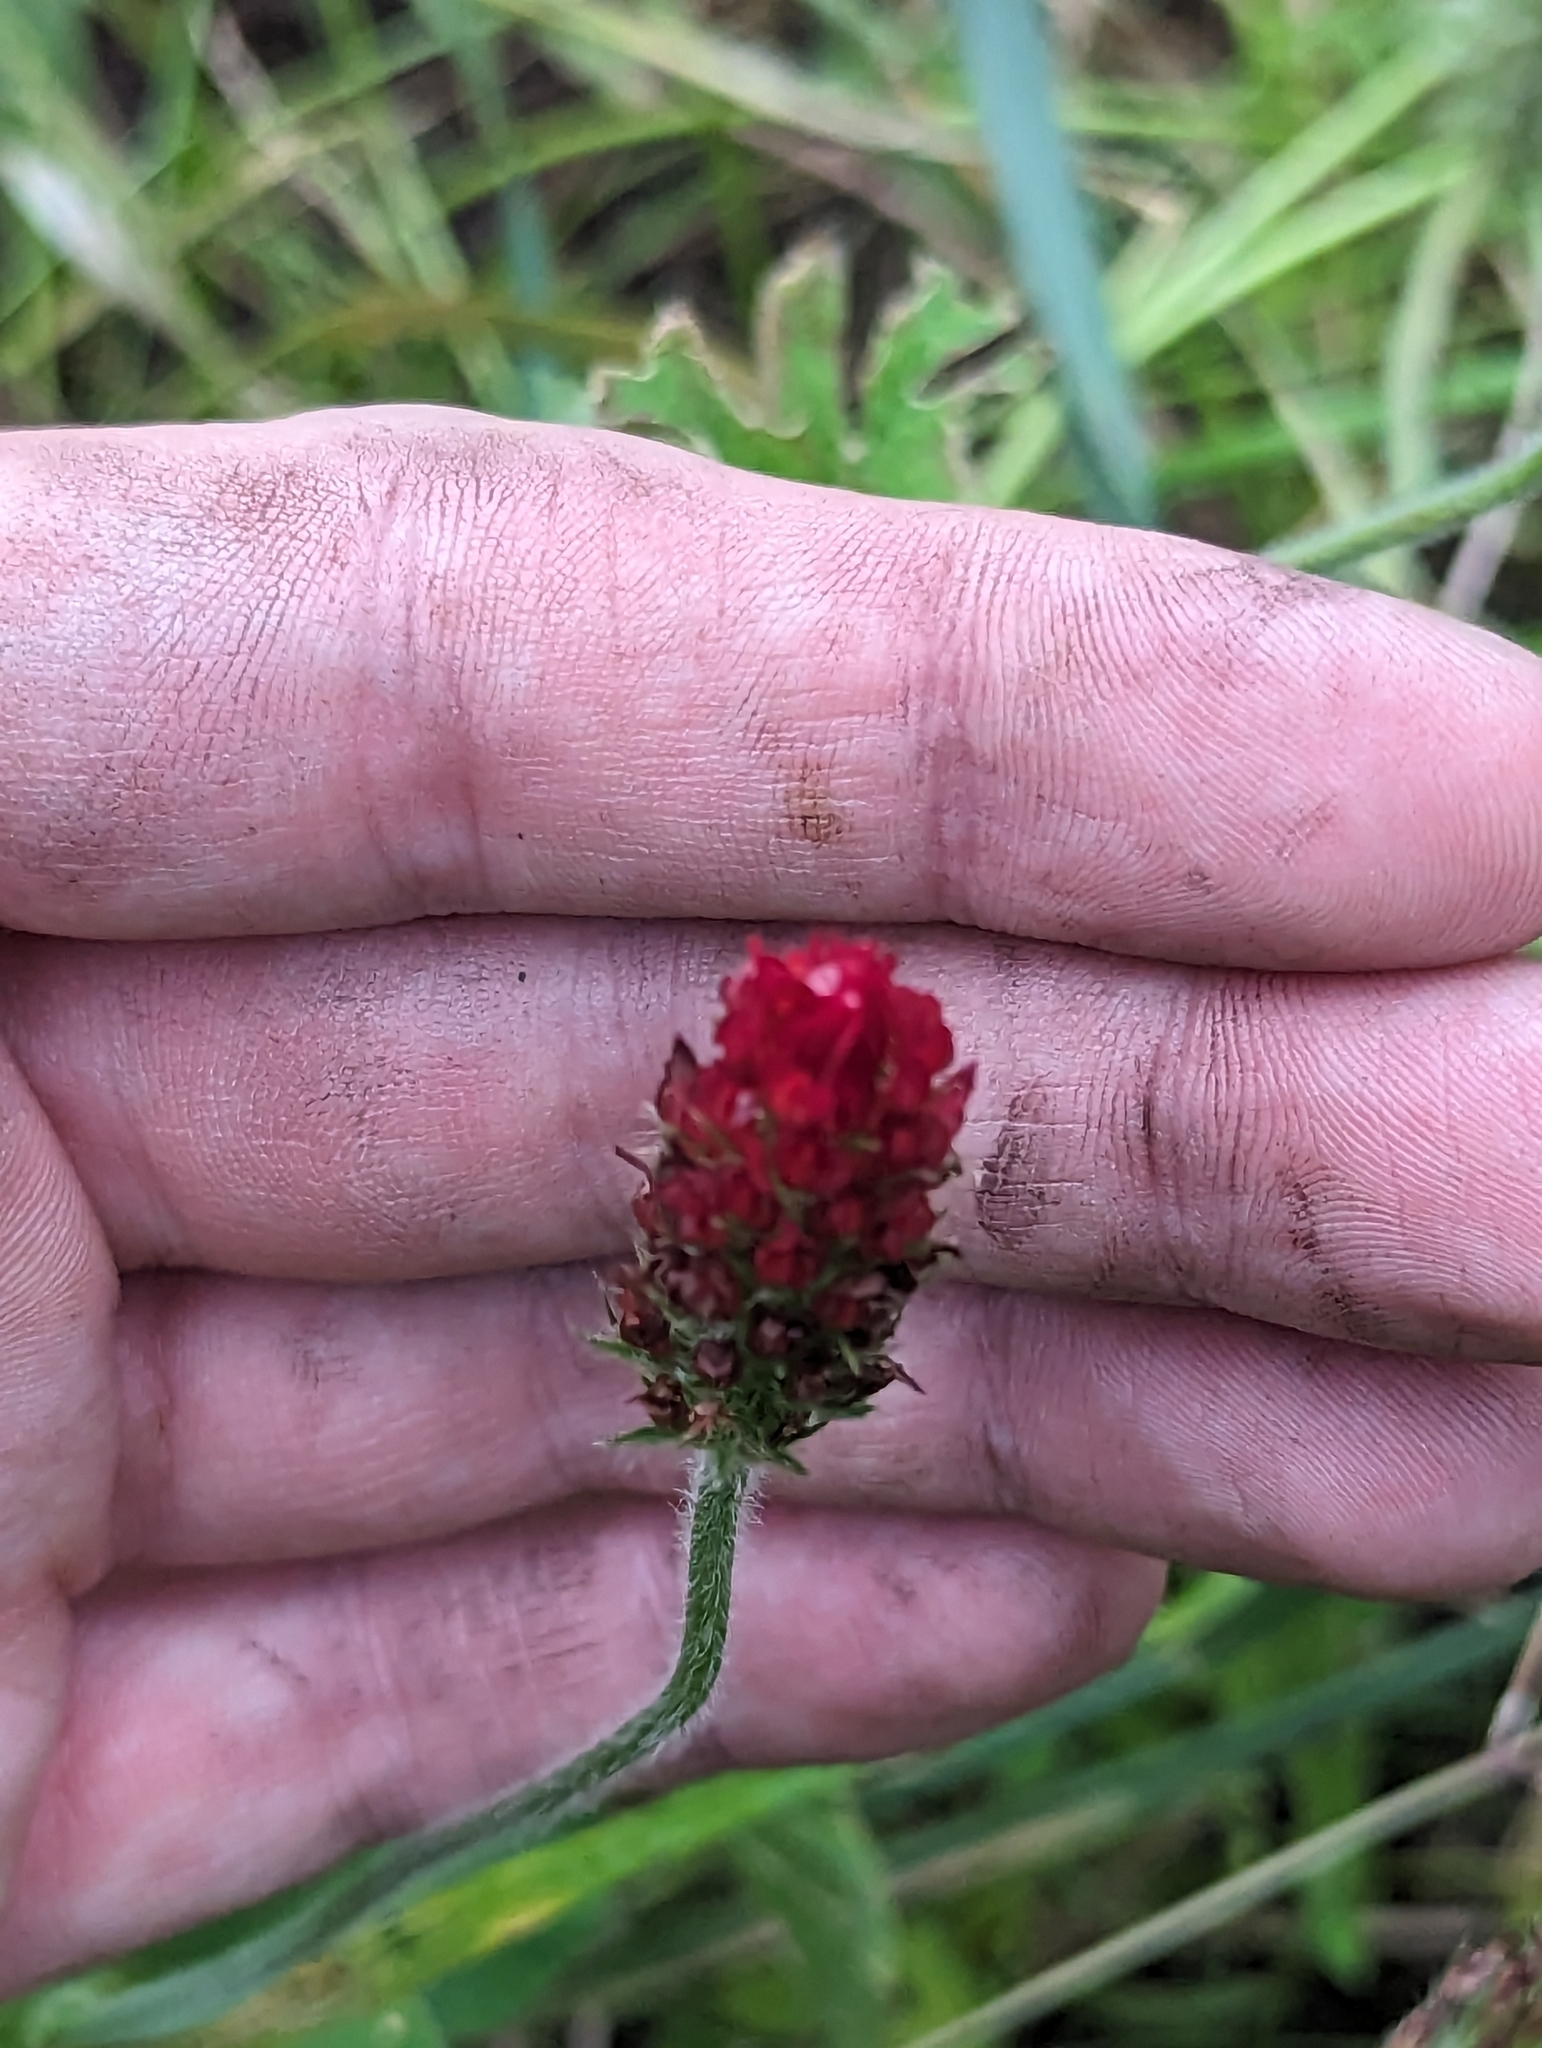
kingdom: Plantae
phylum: Tracheophyta
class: Magnoliopsida
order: Fabales
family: Fabaceae
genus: Trifolium
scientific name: Trifolium incarnatum
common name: Crimson clover
